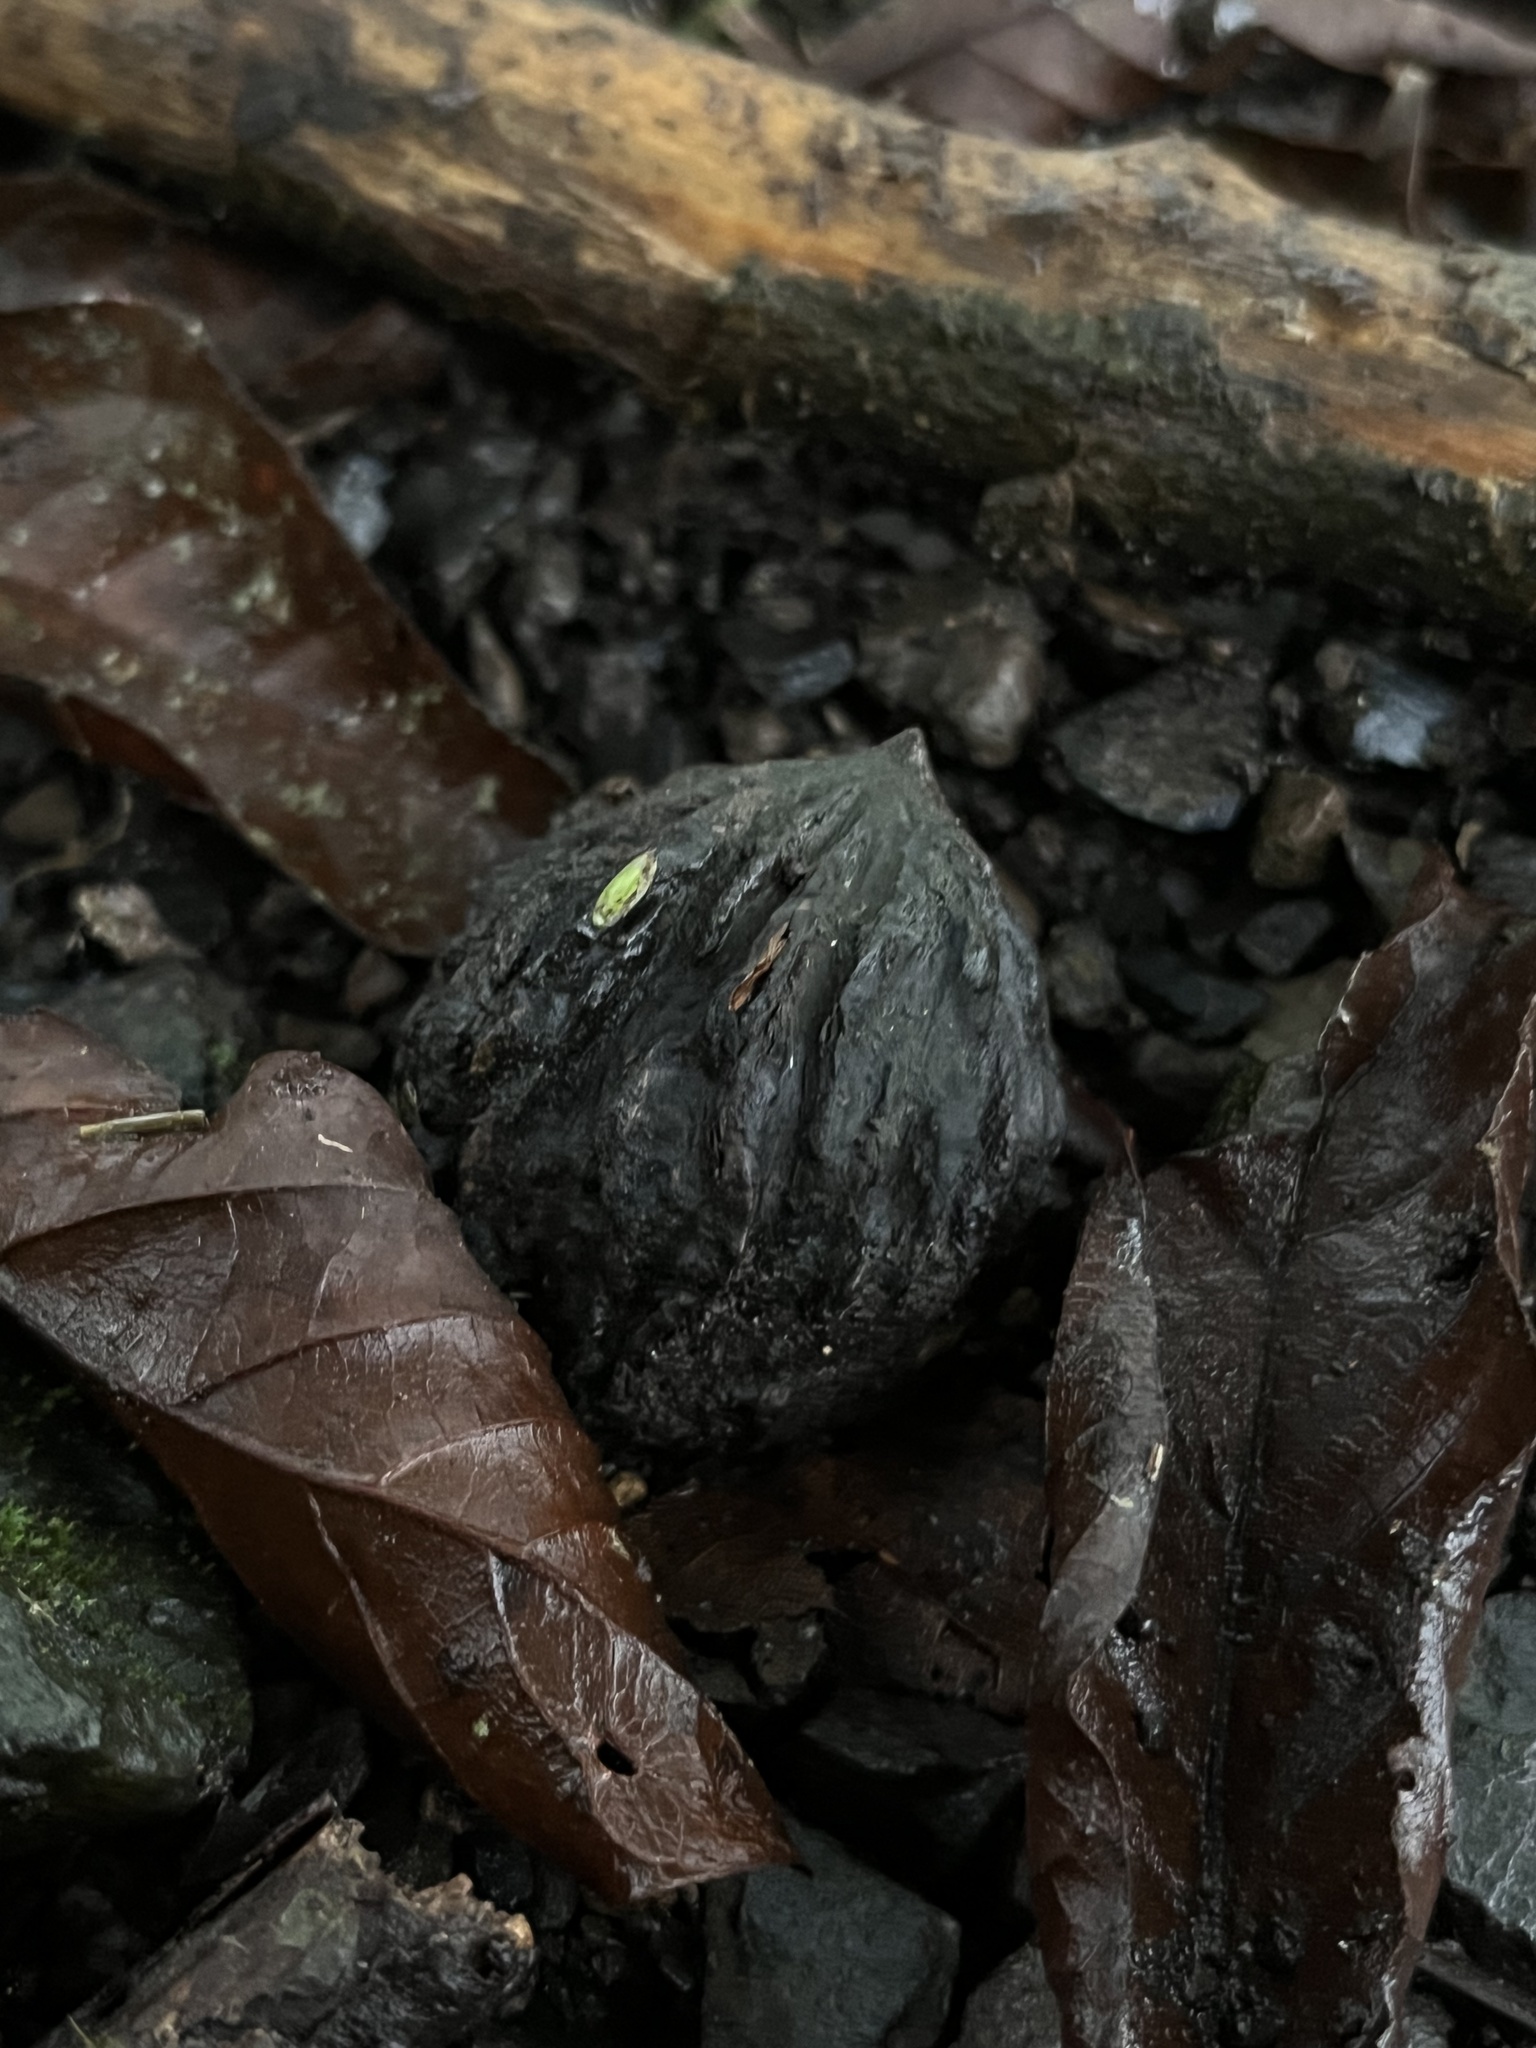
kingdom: Plantae
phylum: Tracheophyta
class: Magnoliopsida
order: Fagales
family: Juglandaceae
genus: Juglans
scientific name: Juglans neotropica
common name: Andean walnut
